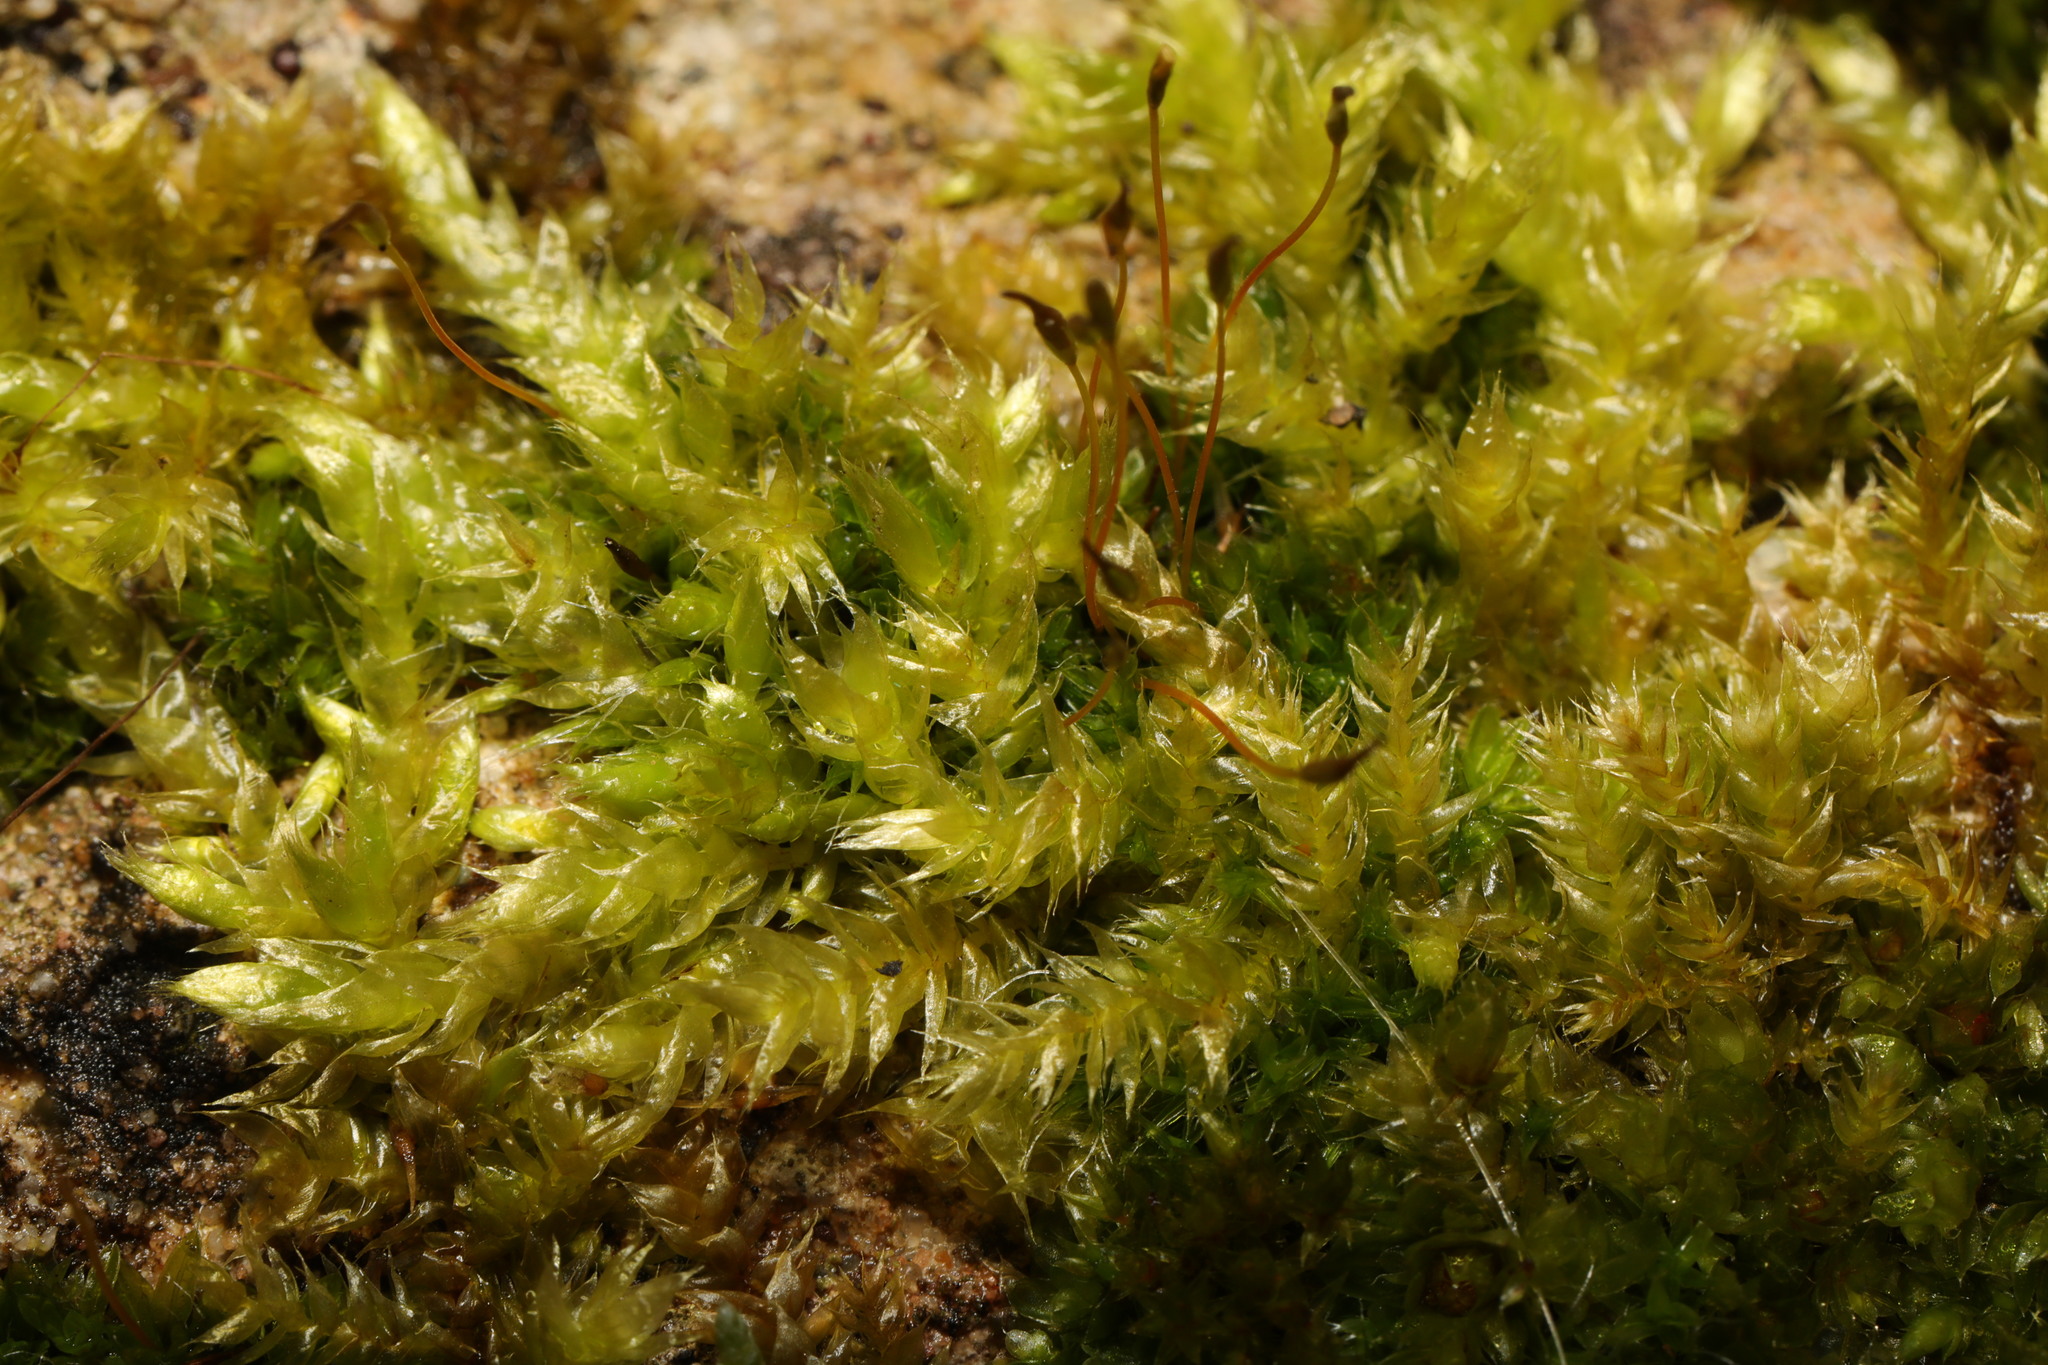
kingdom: Plantae
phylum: Bryophyta
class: Bryopsida
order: Hypnales
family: Brachytheciaceae
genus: Brachythecium
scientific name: Brachythecium rutabulum
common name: Rough-stalked feather-moss
